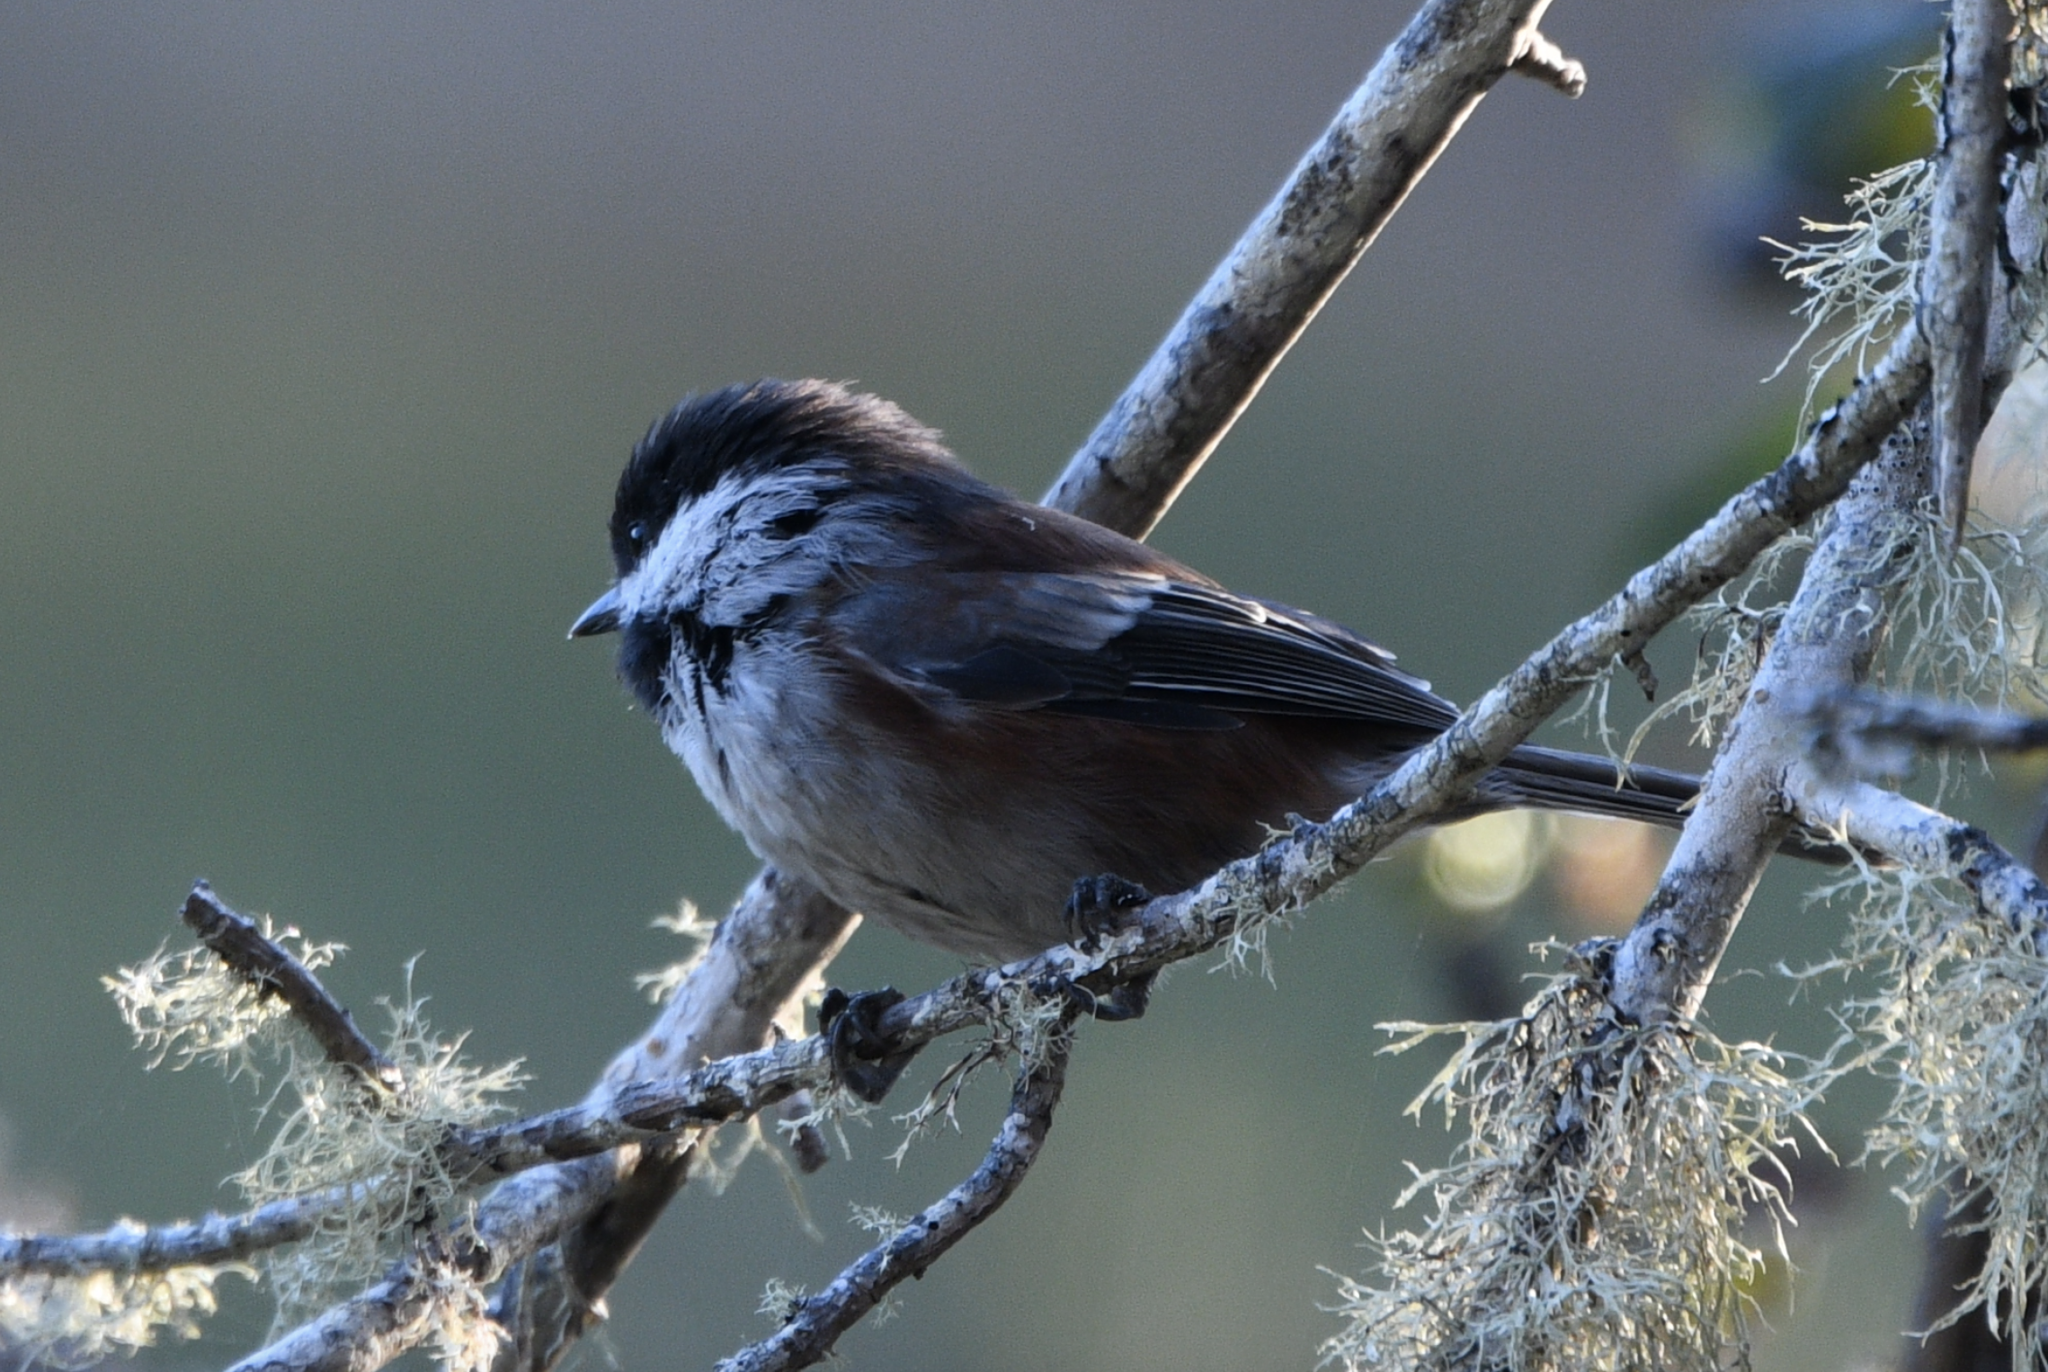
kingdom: Animalia
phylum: Chordata
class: Aves
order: Passeriformes
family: Paridae
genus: Poecile
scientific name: Poecile rufescens
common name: Chestnut-backed chickadee
